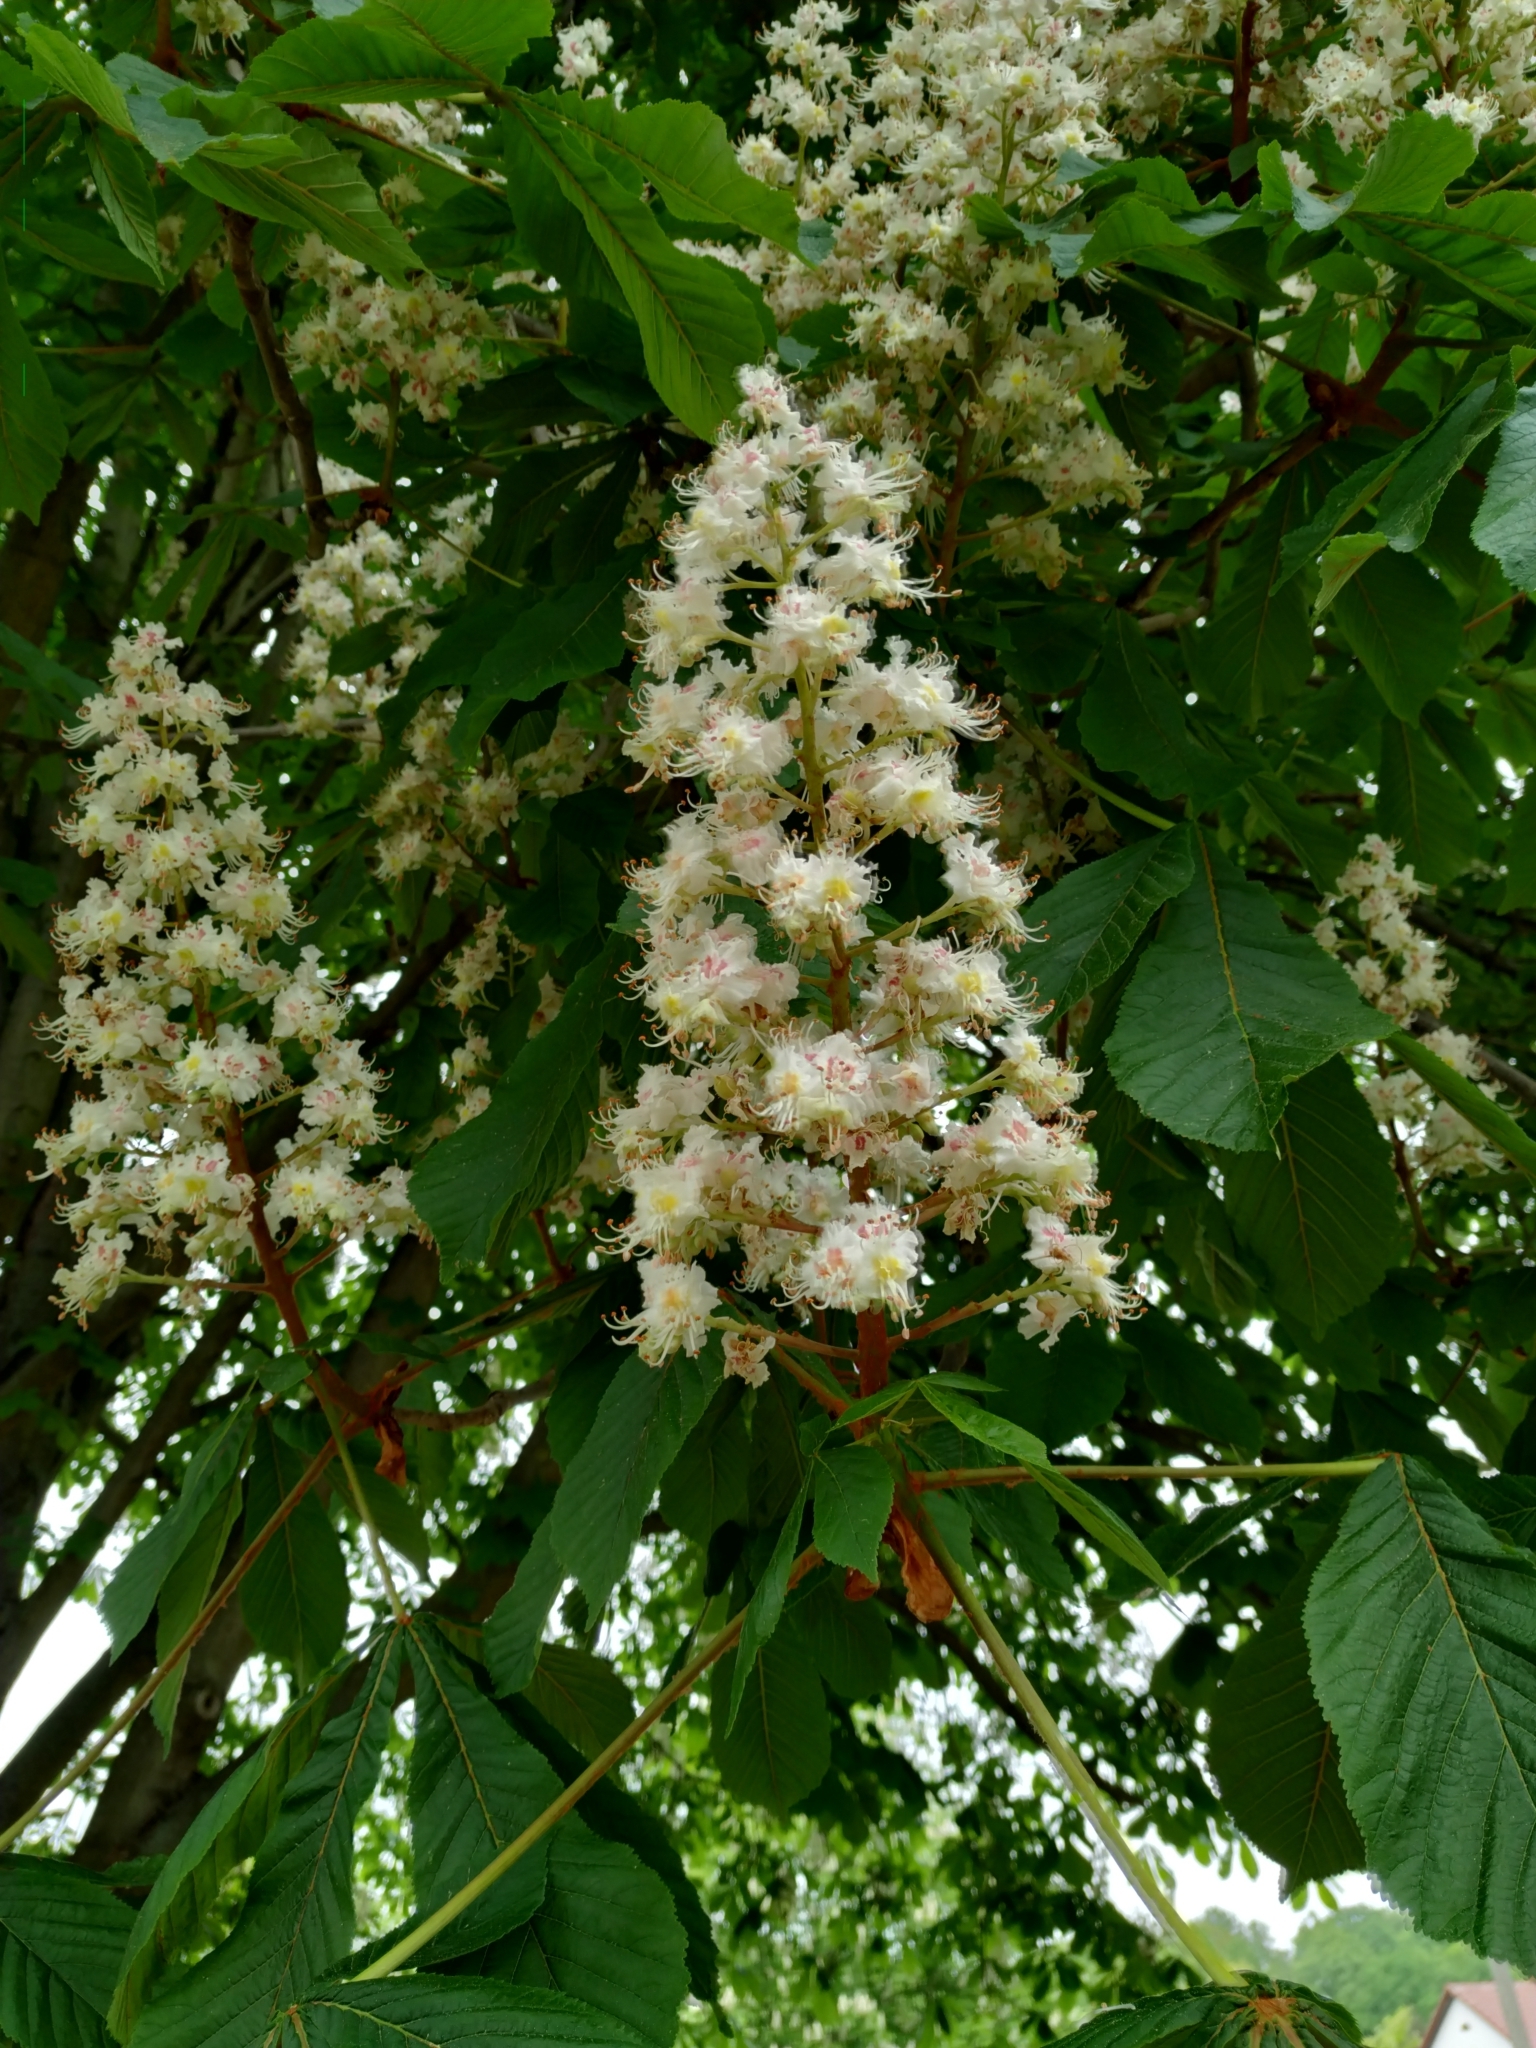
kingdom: Plantae
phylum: Tracheophyta
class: Magnoliopsida
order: Sapindales
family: Sapindaceae
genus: Aesculus
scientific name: Aesculus hippocastanum
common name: Horse-chestnut
